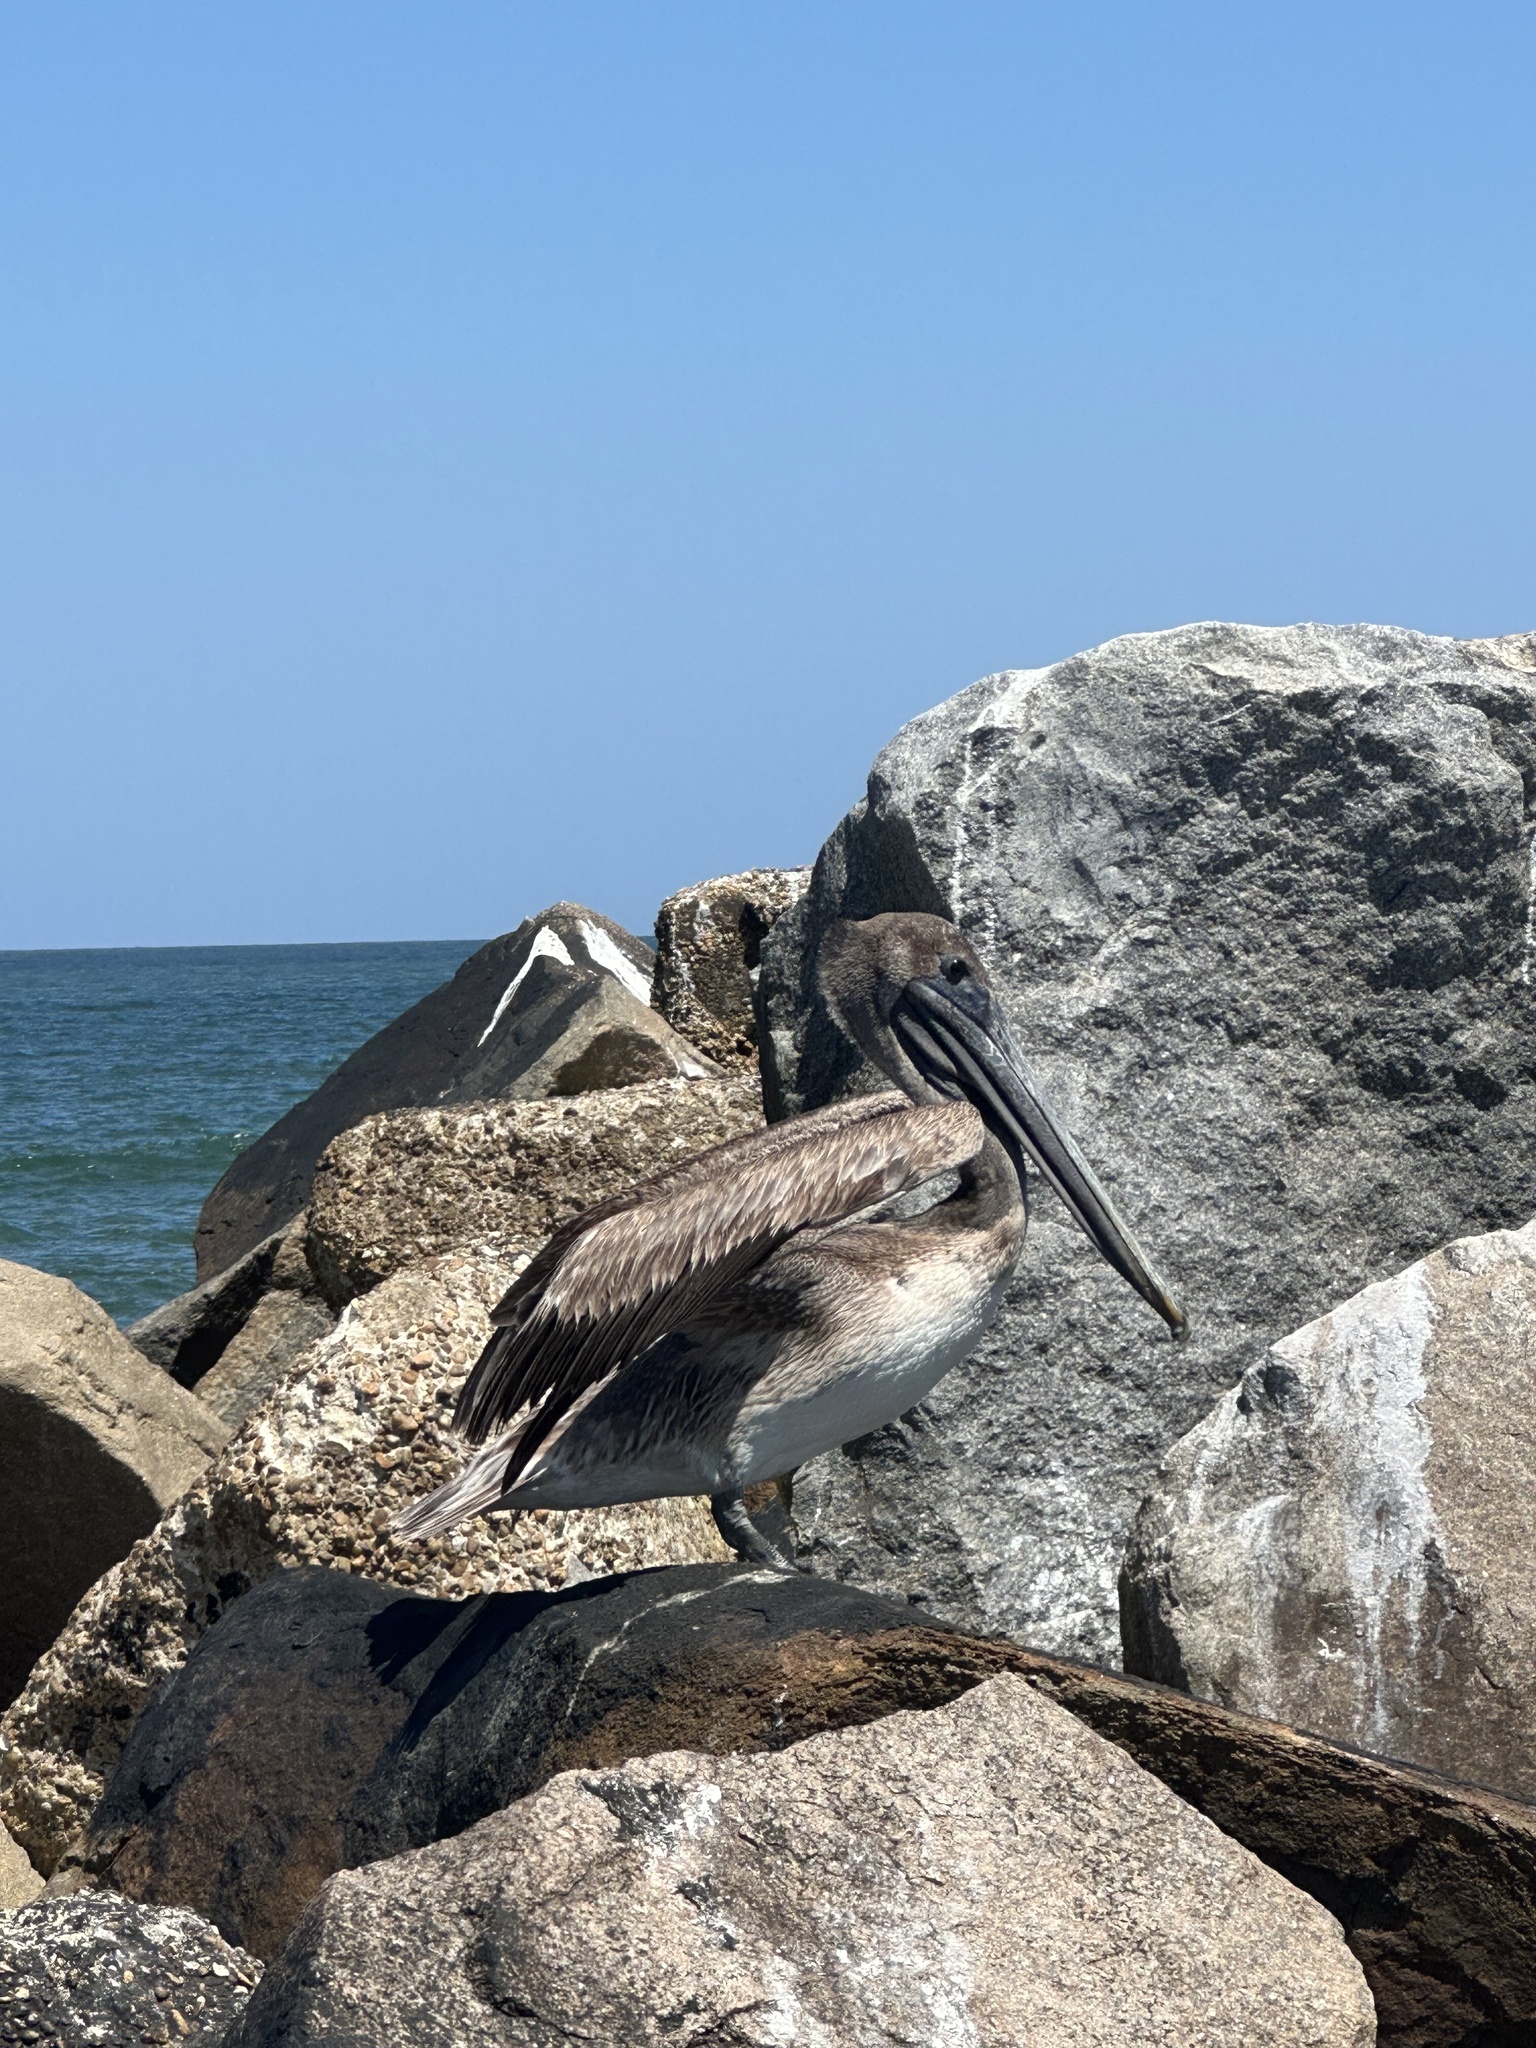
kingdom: Animalia
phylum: Chordata
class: Aves
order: Pelecaniformes
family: Pelecanidae
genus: Pelecanus
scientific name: Pelecanus occidentalis
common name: Brown pelican
